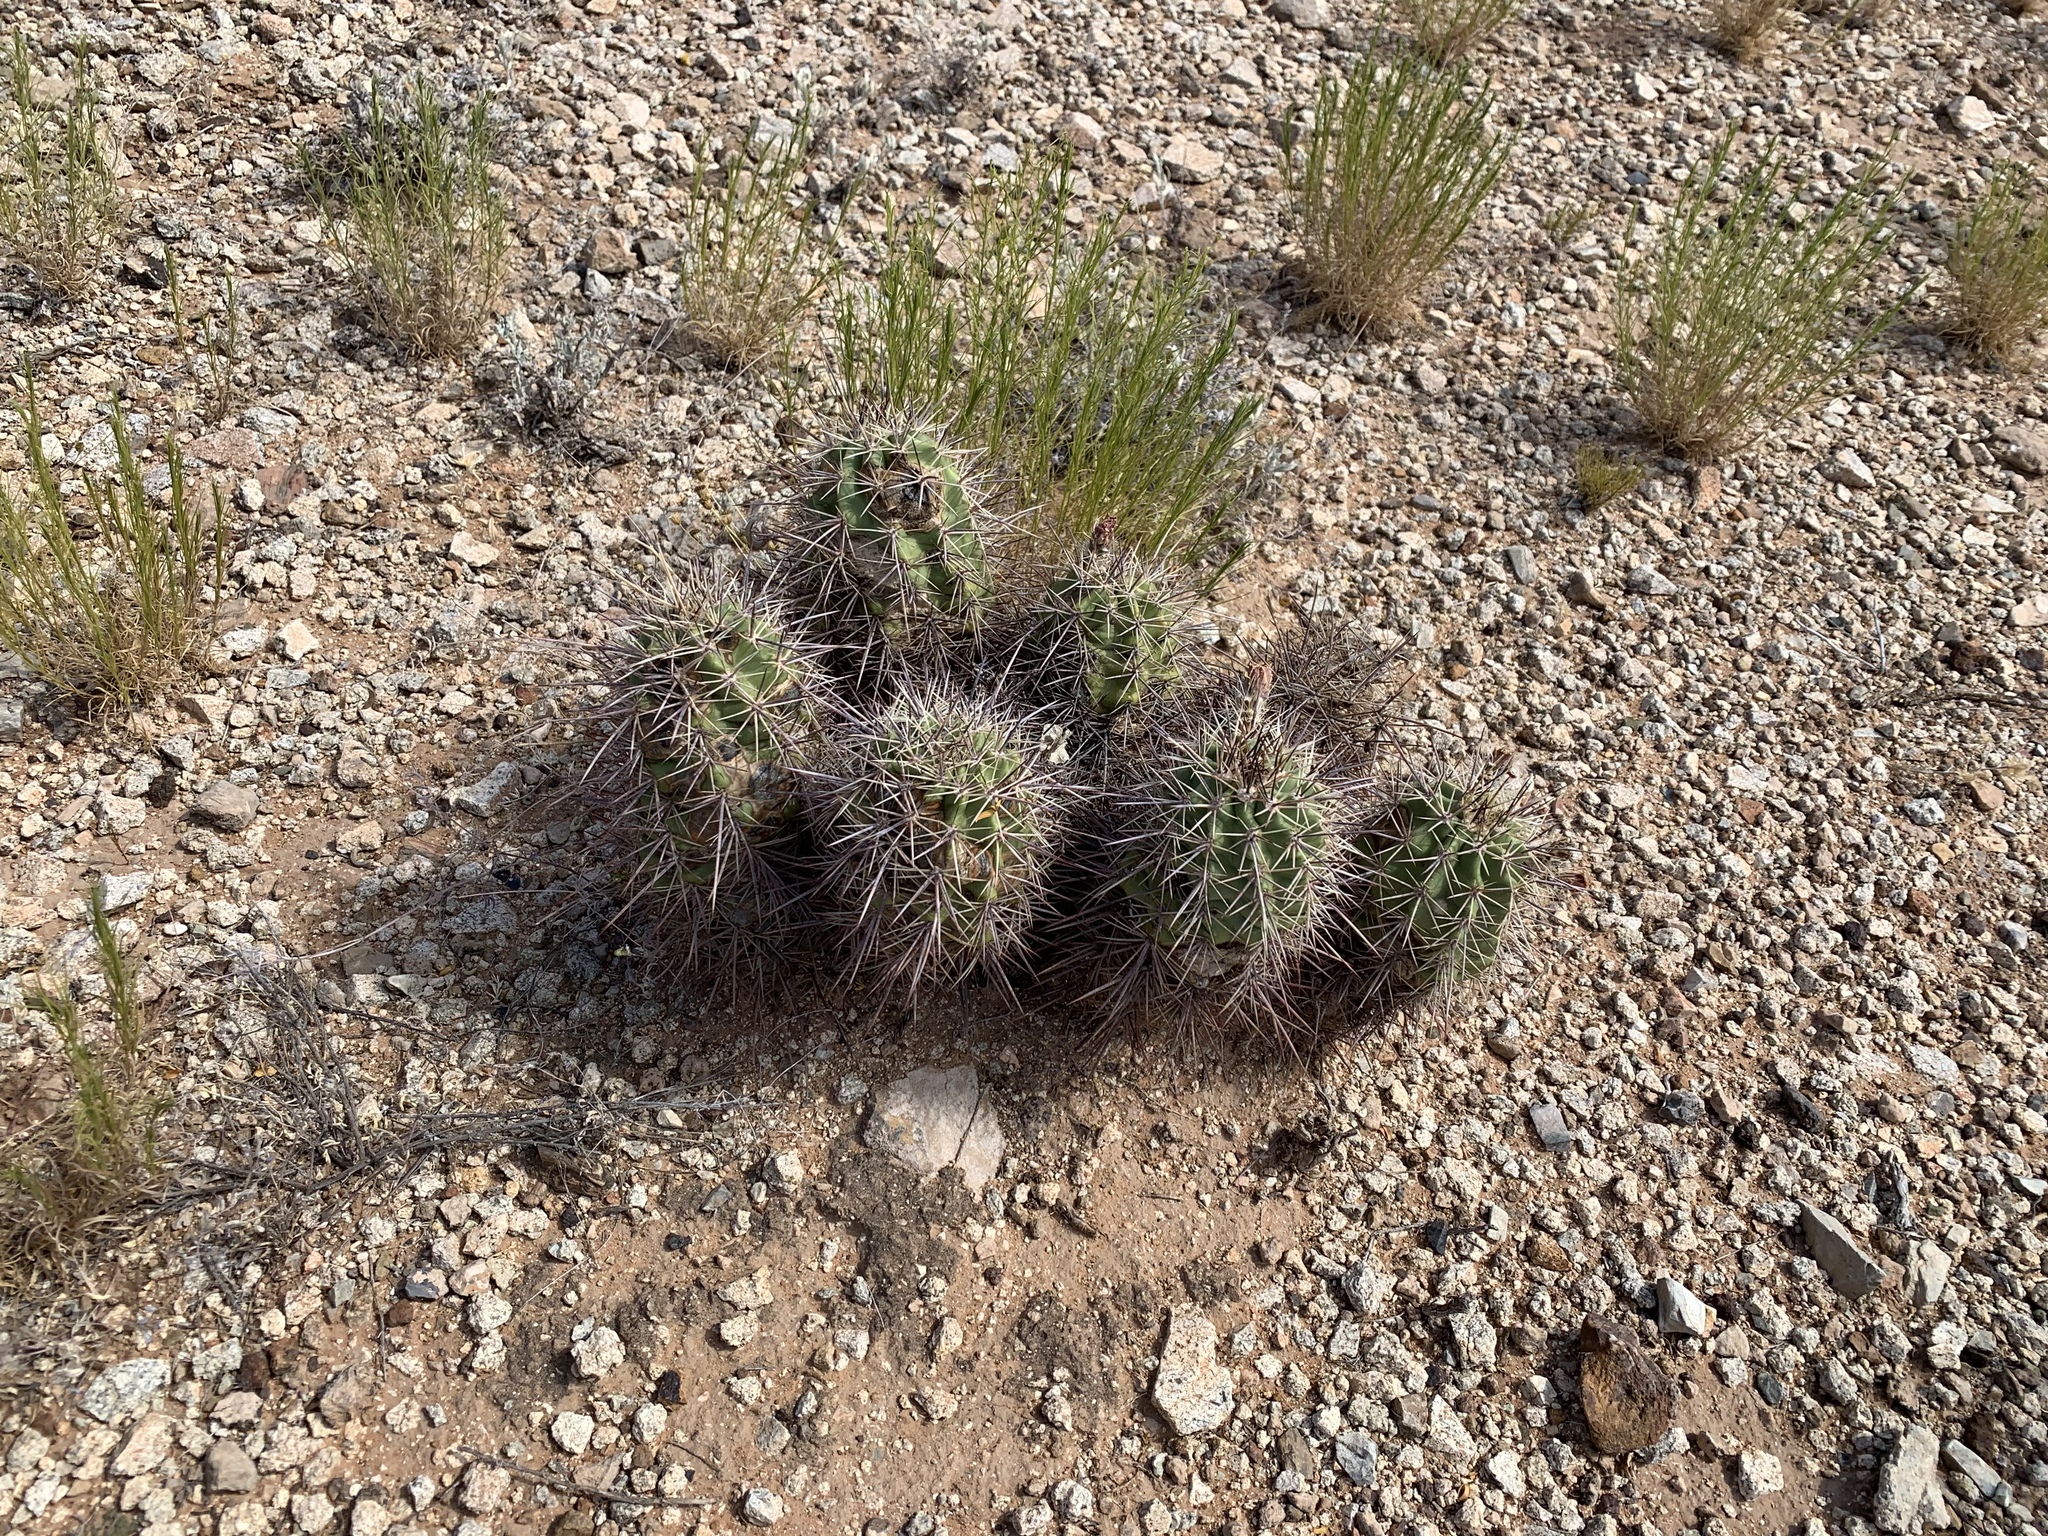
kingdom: Plantae
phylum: Tracheophyta
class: Magnoliopsida
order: Caryophyllales
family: Cactaceae
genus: Echinocereus
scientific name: Echinocereus coccineus
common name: Scarlet hedgehog cactus
